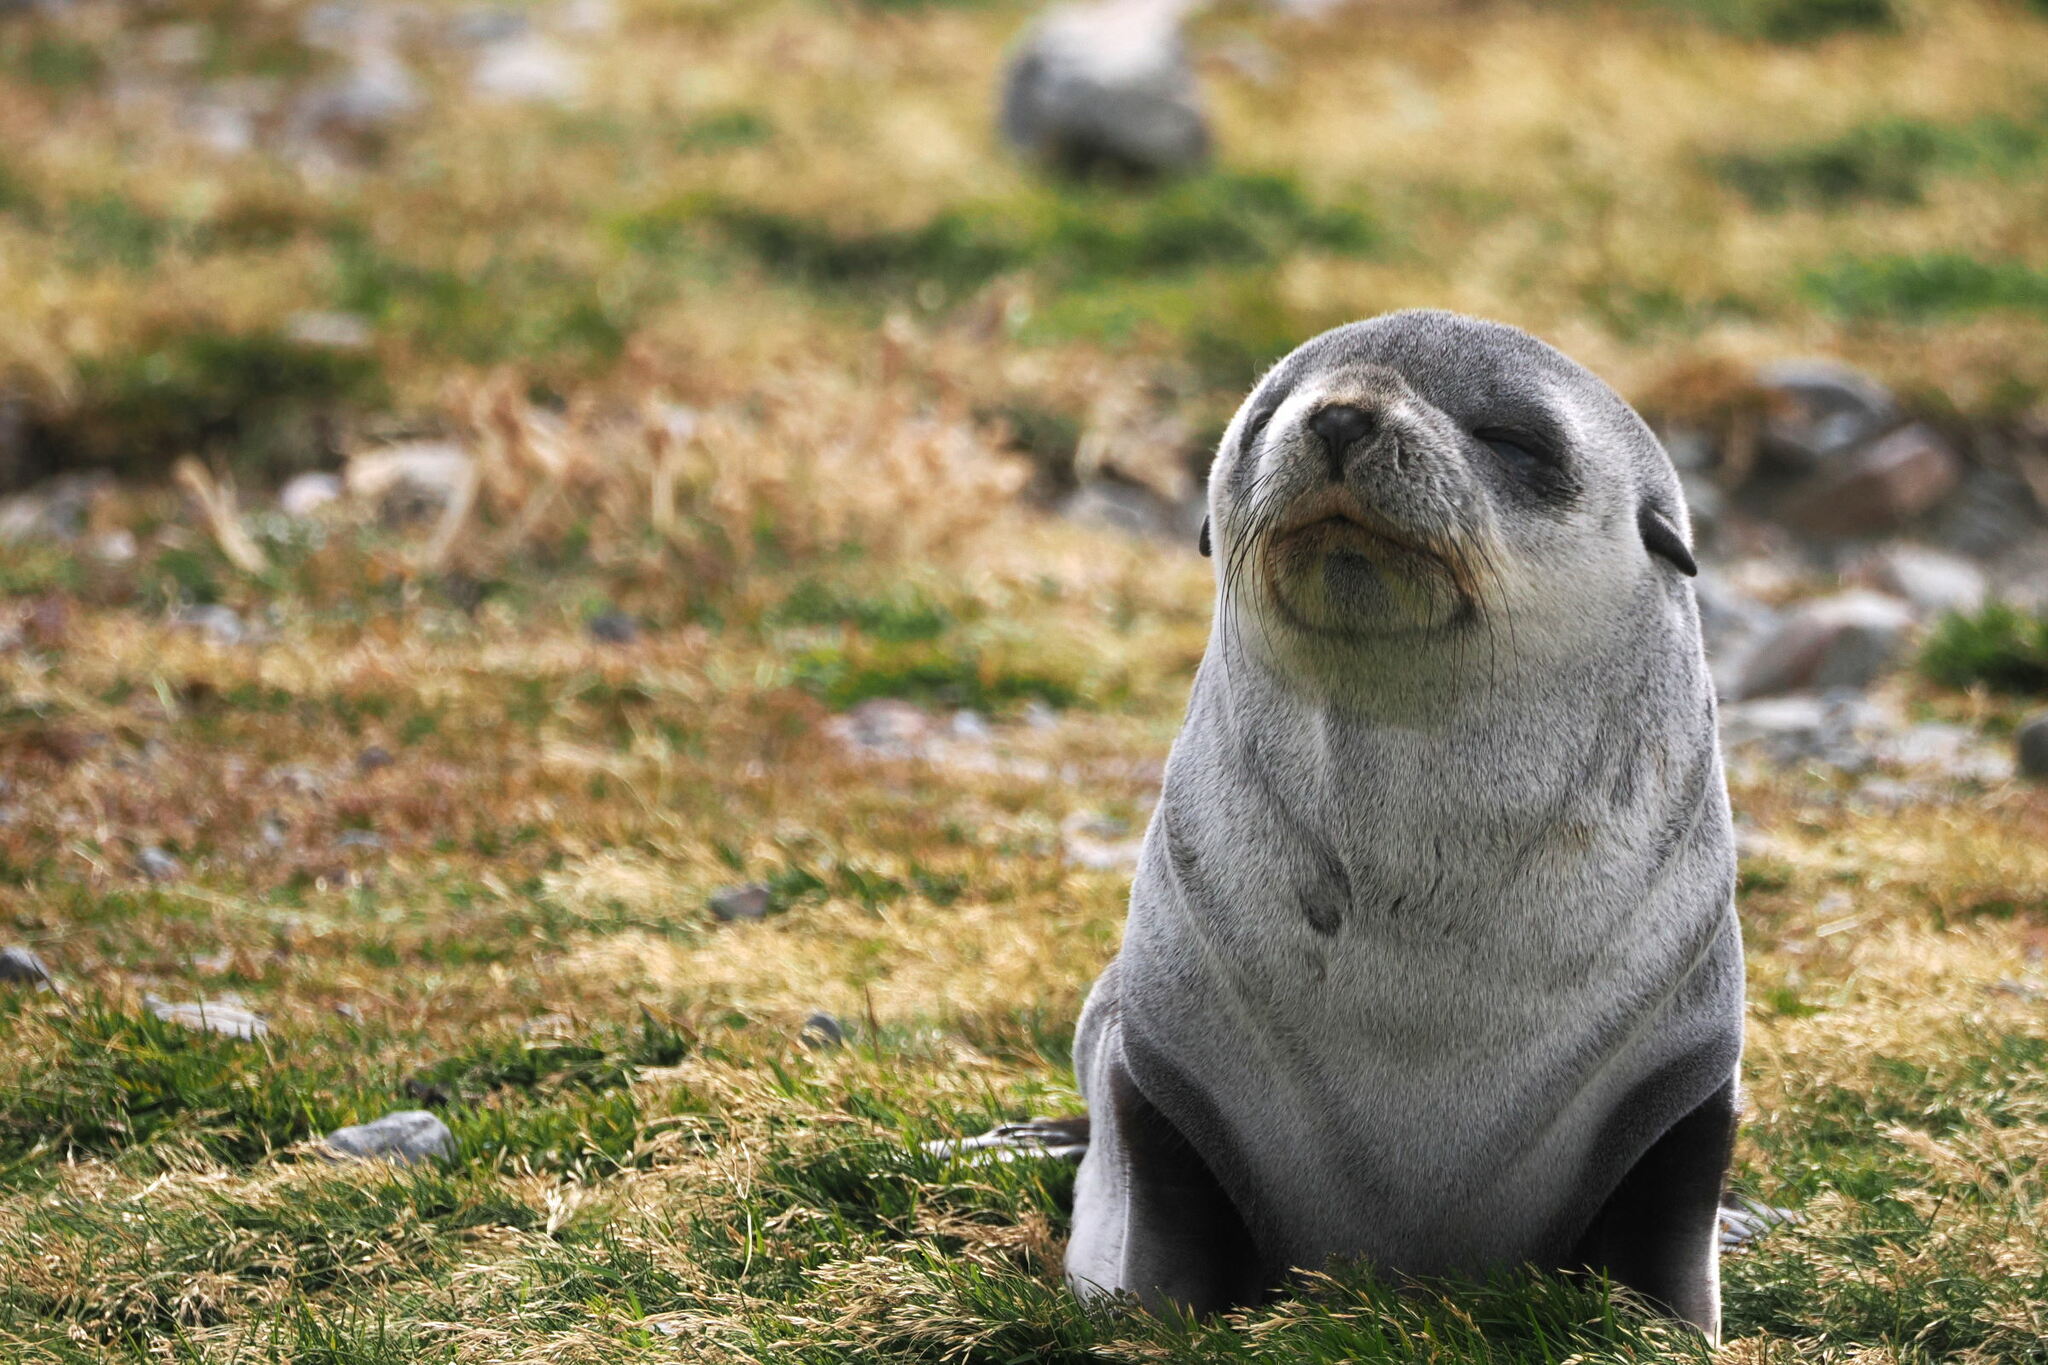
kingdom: Animalia
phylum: Chordata
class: Mammalia
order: Carnivora
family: Otariidae
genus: Arctocephalus
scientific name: Arctocephalus gazella
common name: Antarctic fur seal
